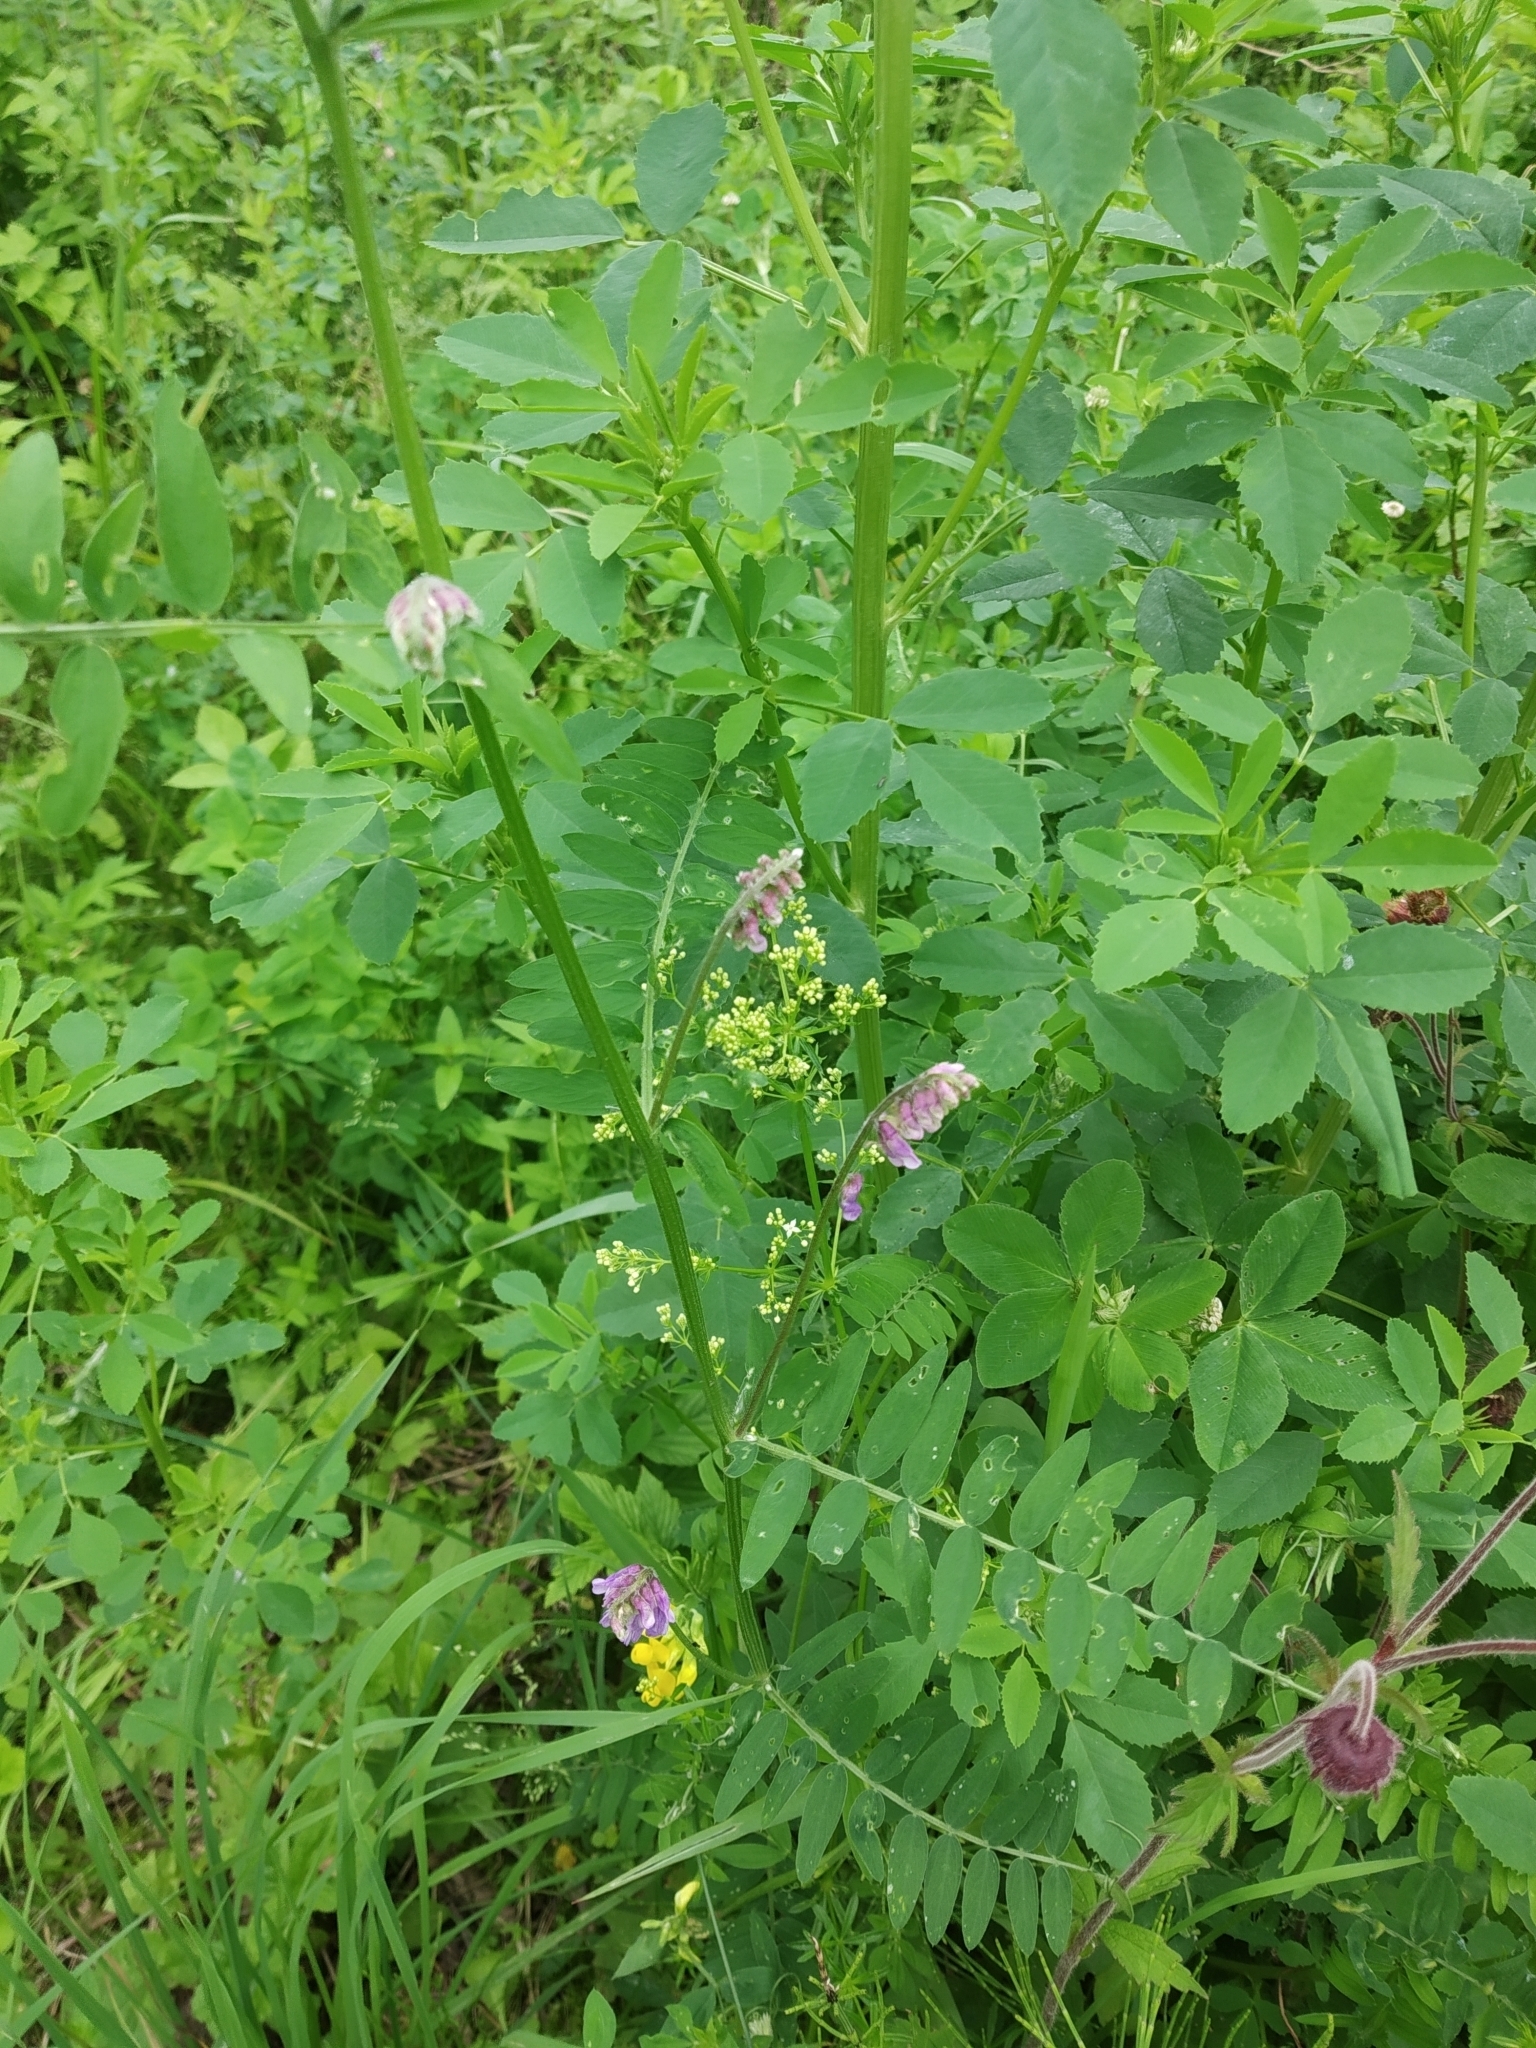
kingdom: Plantae
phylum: Tracheophyta
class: Magnoliopsida
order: Fabales
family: Fabaceae
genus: Vicia
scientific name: Vicia cracca
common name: Bird vetch
